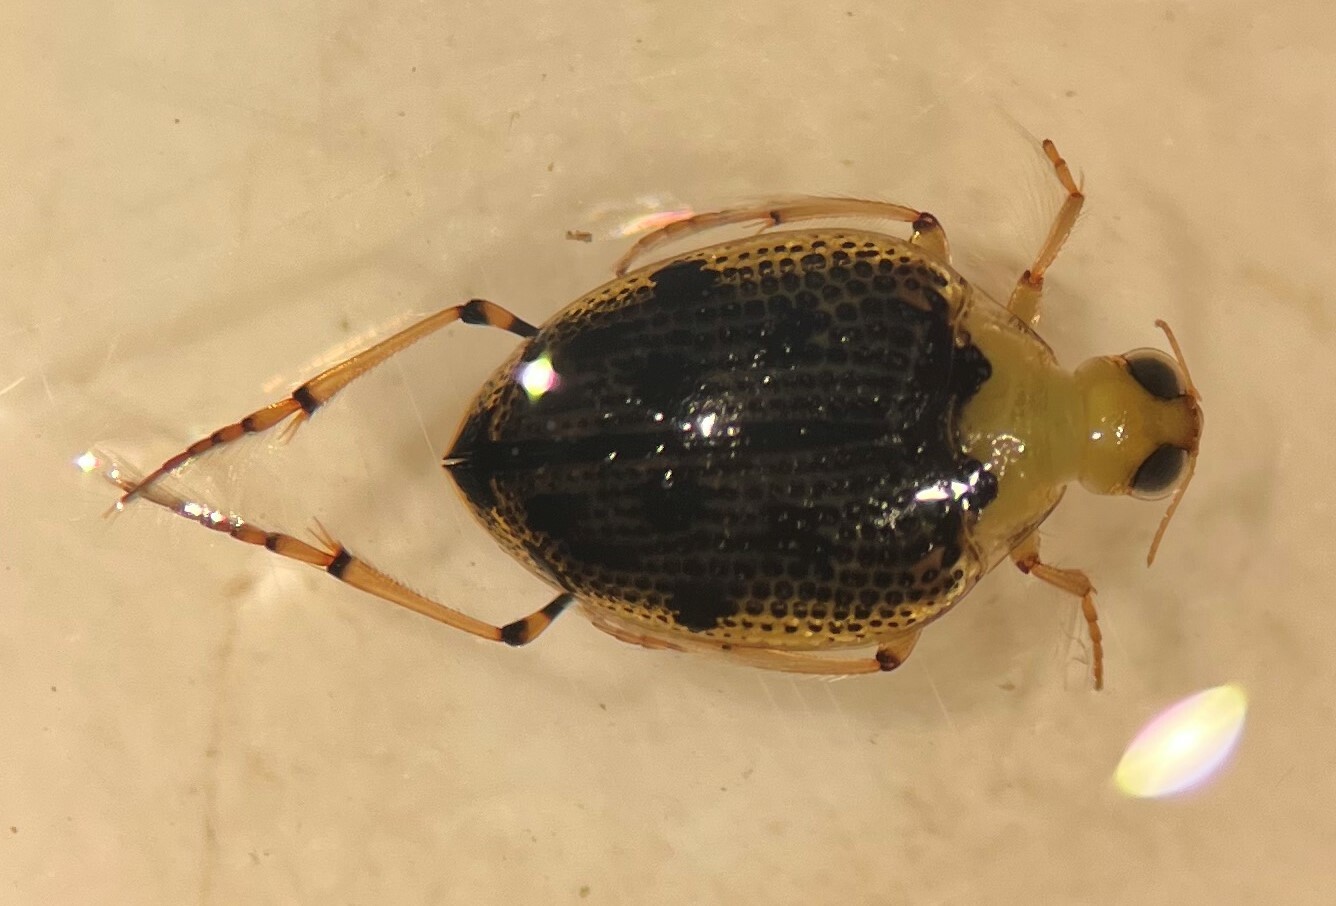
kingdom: Animalia
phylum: Arthropoda
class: Insecta
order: Coleoptera
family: Haliplidae
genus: Peltodytes
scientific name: Peltodytes duodecimpunctatus
